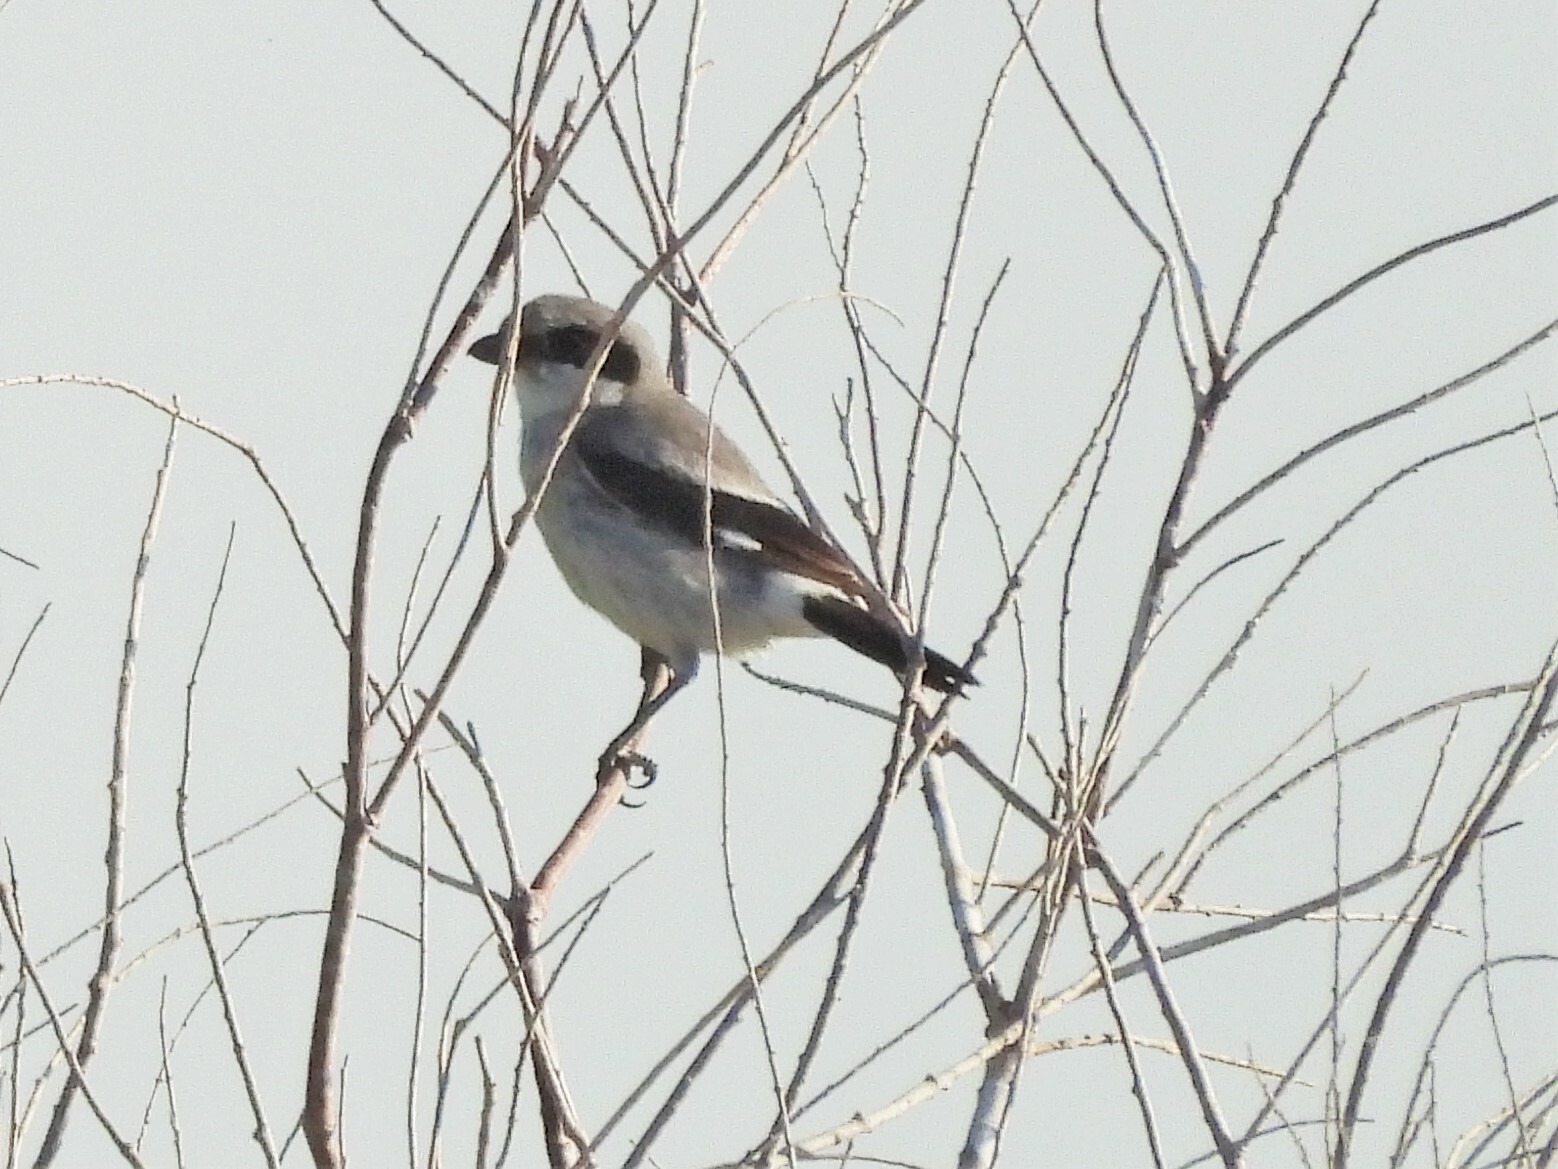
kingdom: Animalia
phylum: Chordata
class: Aves
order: Passeriformes
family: Laniidae
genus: Lanius
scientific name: Lanius ludovicianus
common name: Loggerhead shrike
